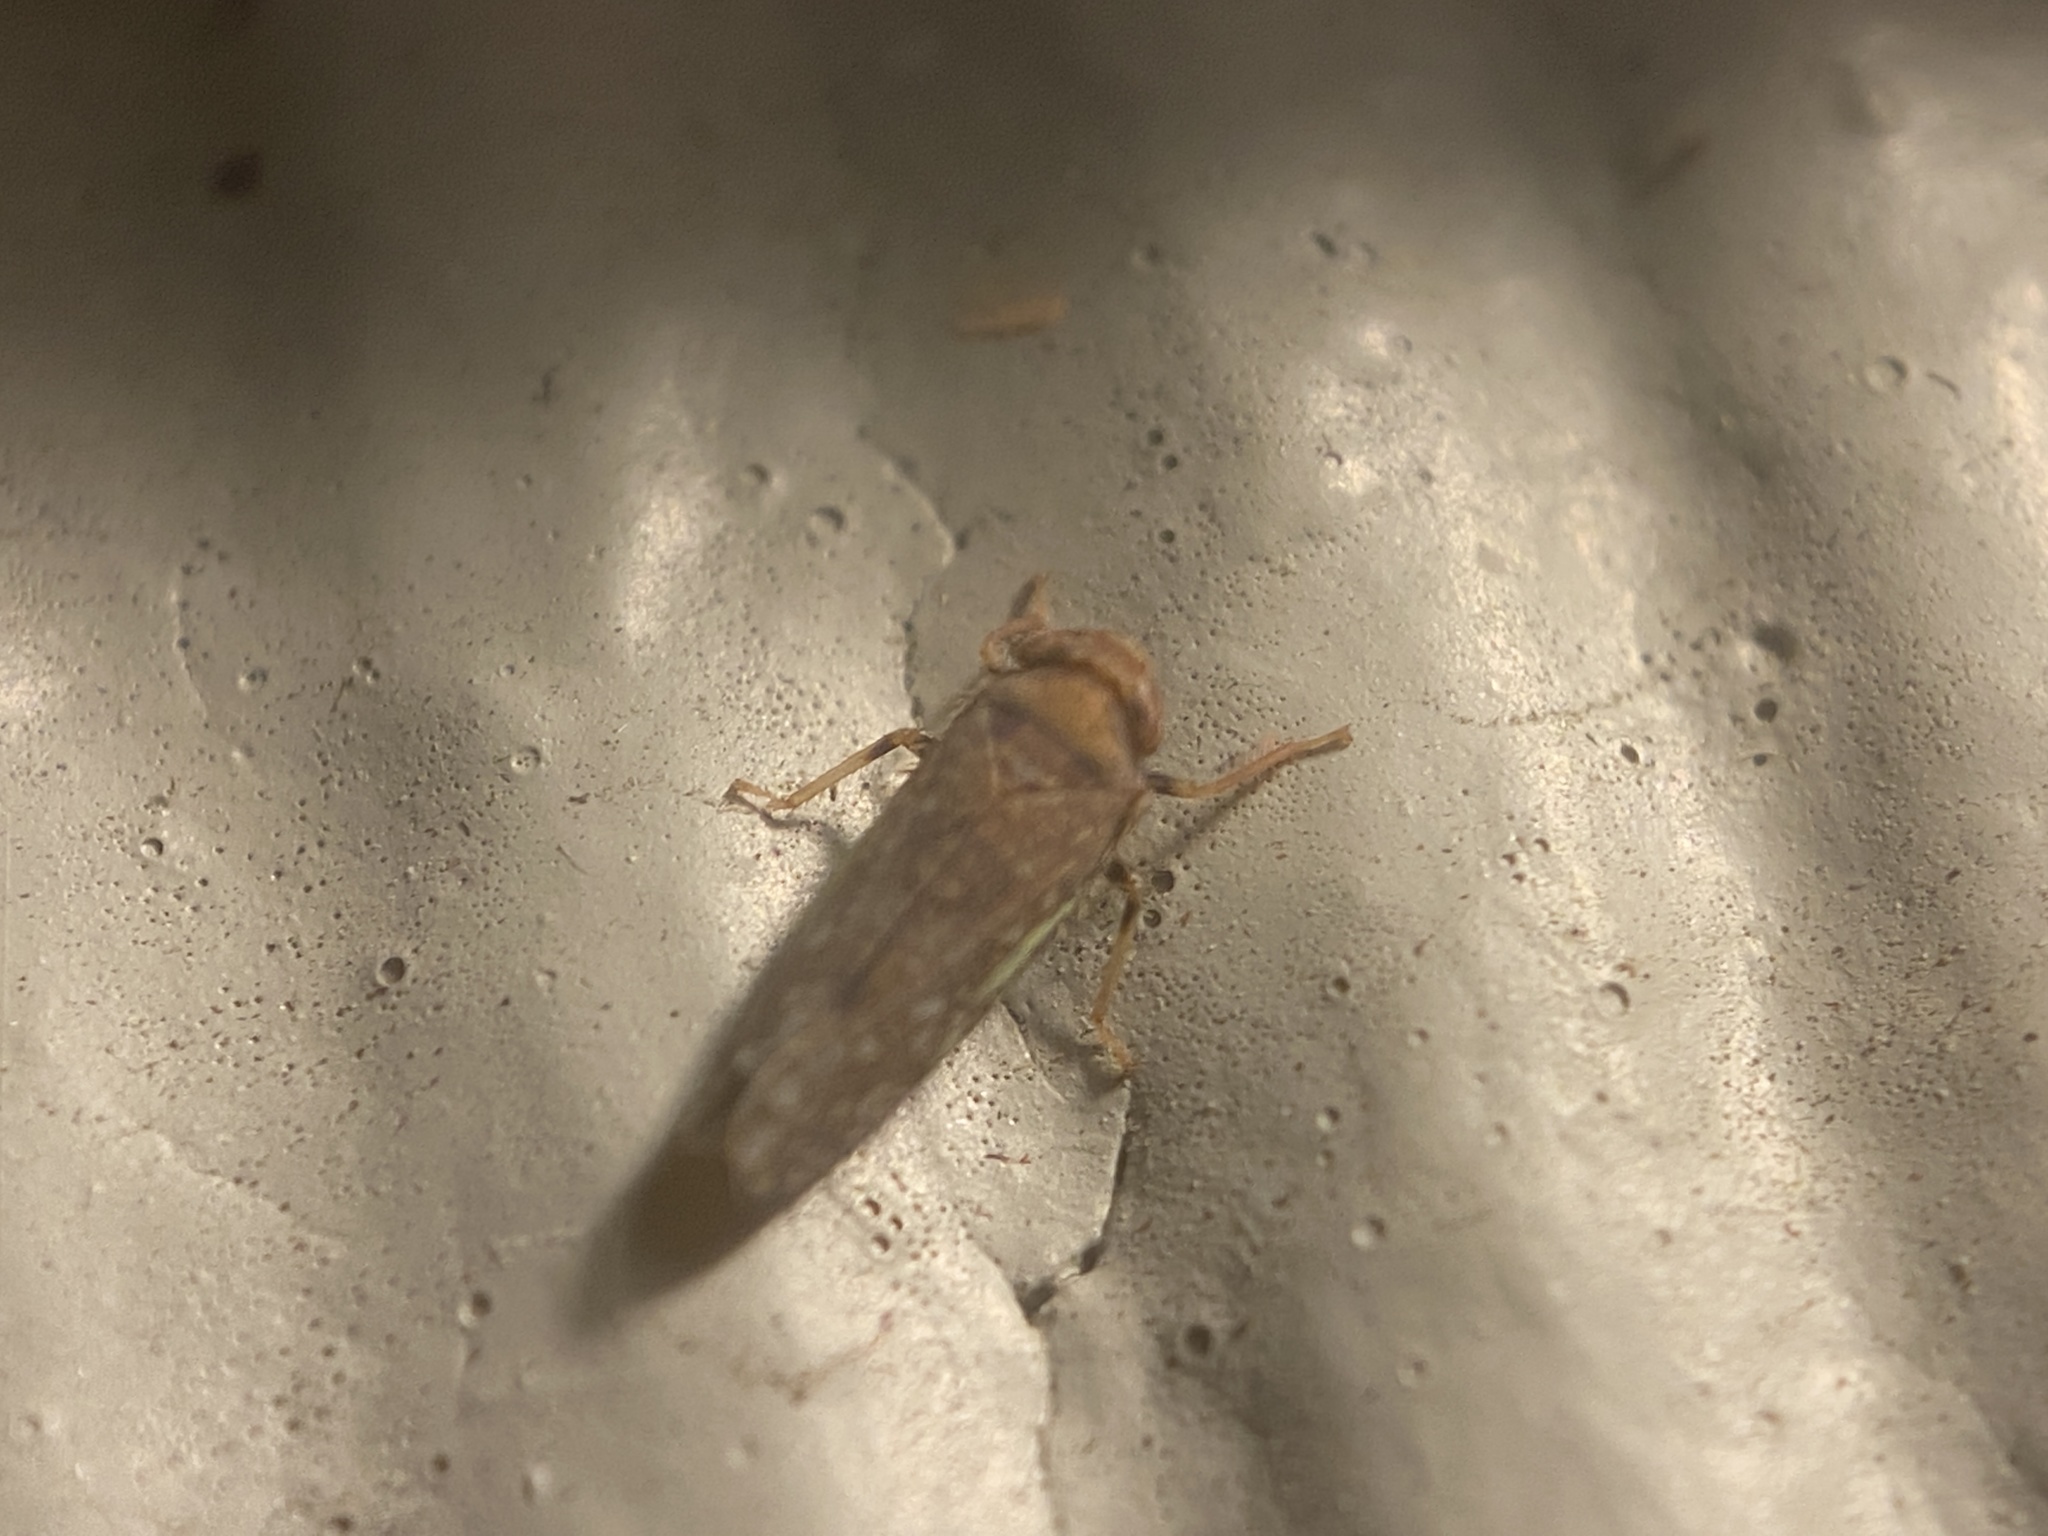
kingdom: Animalia
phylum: Arthropoda
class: Insecta
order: Hemiptera
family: Cicadellidae
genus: Orientus
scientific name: Orientus ishidae
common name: Japanese leafhopper
